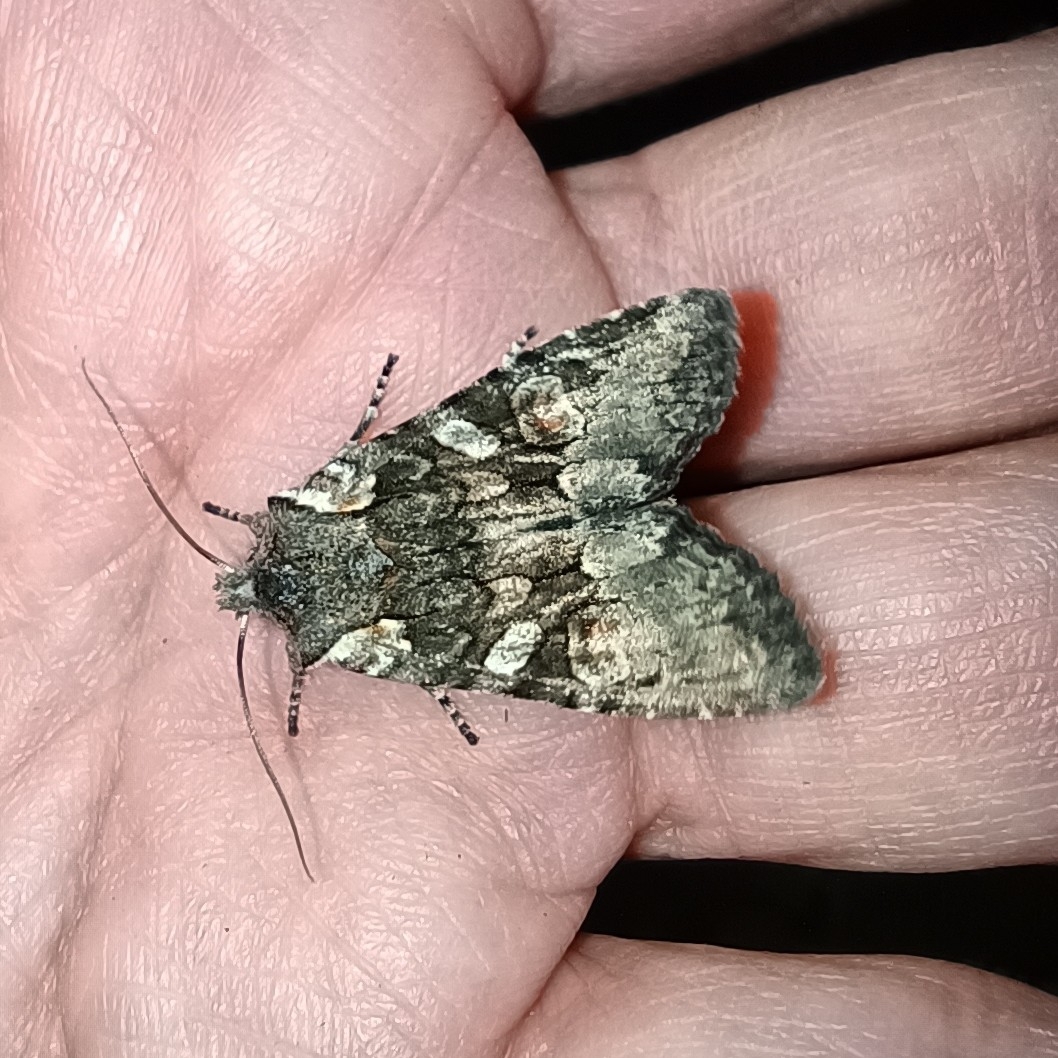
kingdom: Animalia
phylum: Arthropoda
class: Insecta
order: Lepidoptera
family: Noctuidae
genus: Lithophane
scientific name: Lithophane consocia
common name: Softly's shoulder-knot
